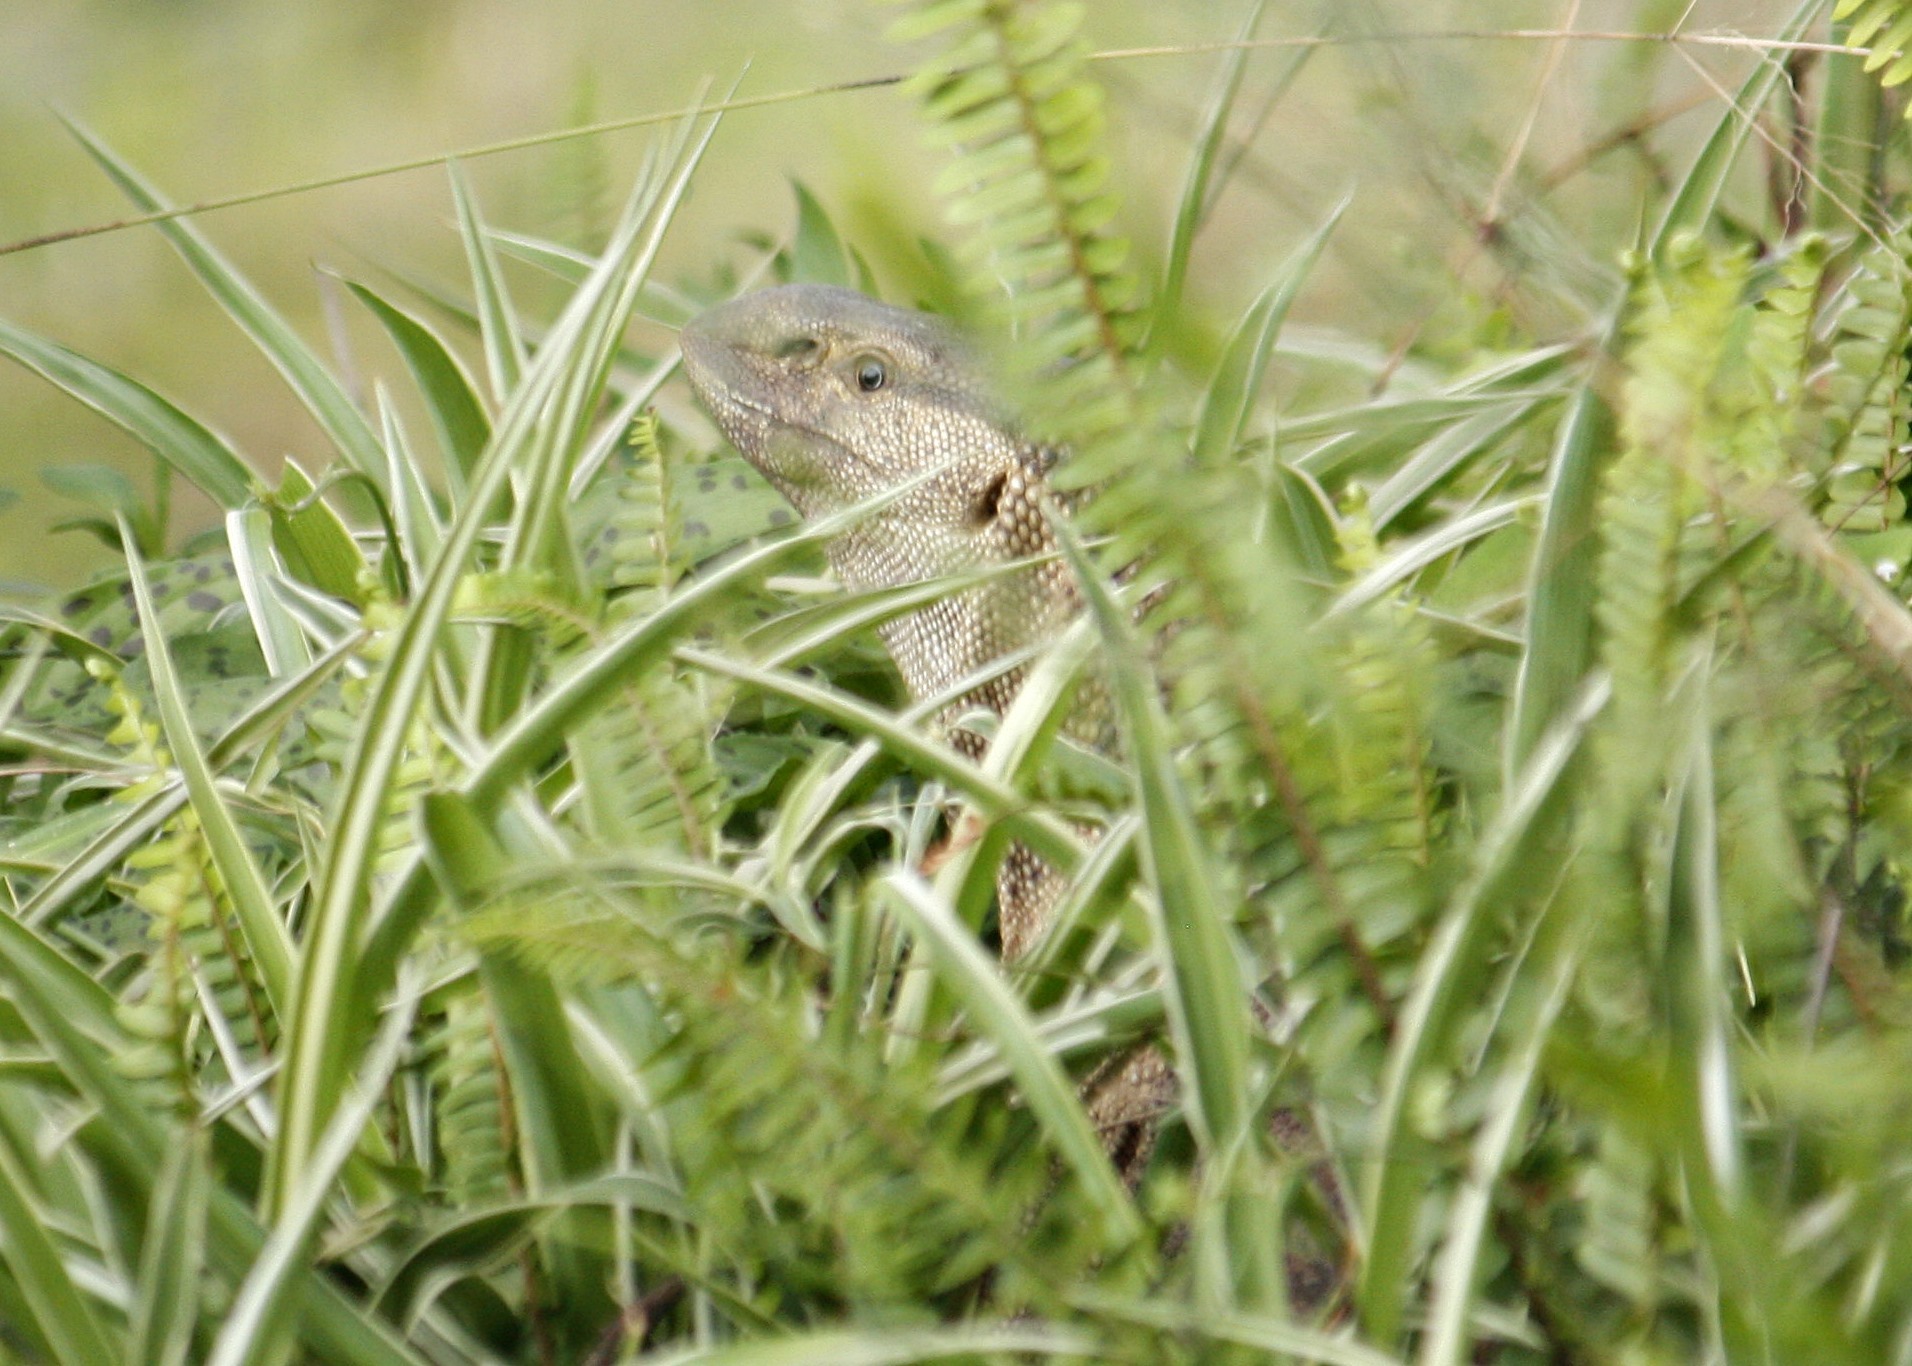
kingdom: Animalia
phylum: Chordata
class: Squamata
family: Varanidae
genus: Varanus
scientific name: Varanus albigularis
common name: White-throated monitor
